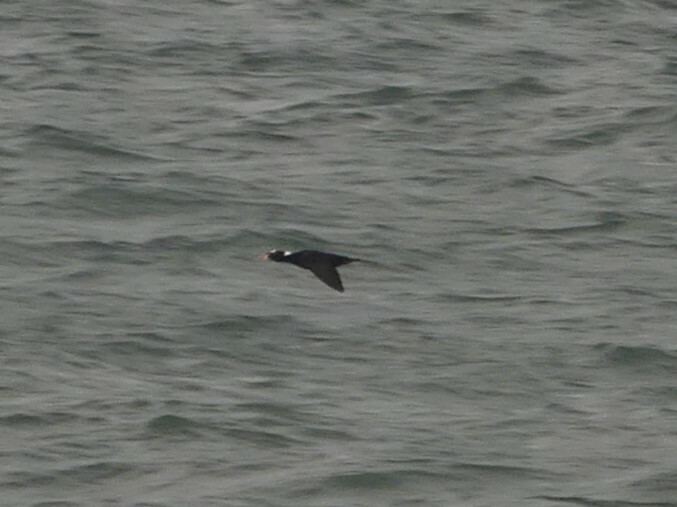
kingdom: Animalia
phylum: Chordata
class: Aves
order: Anseriformes
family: Anatidae
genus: Melanitta
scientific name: Melanitta perspicillata
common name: Surf scoter
